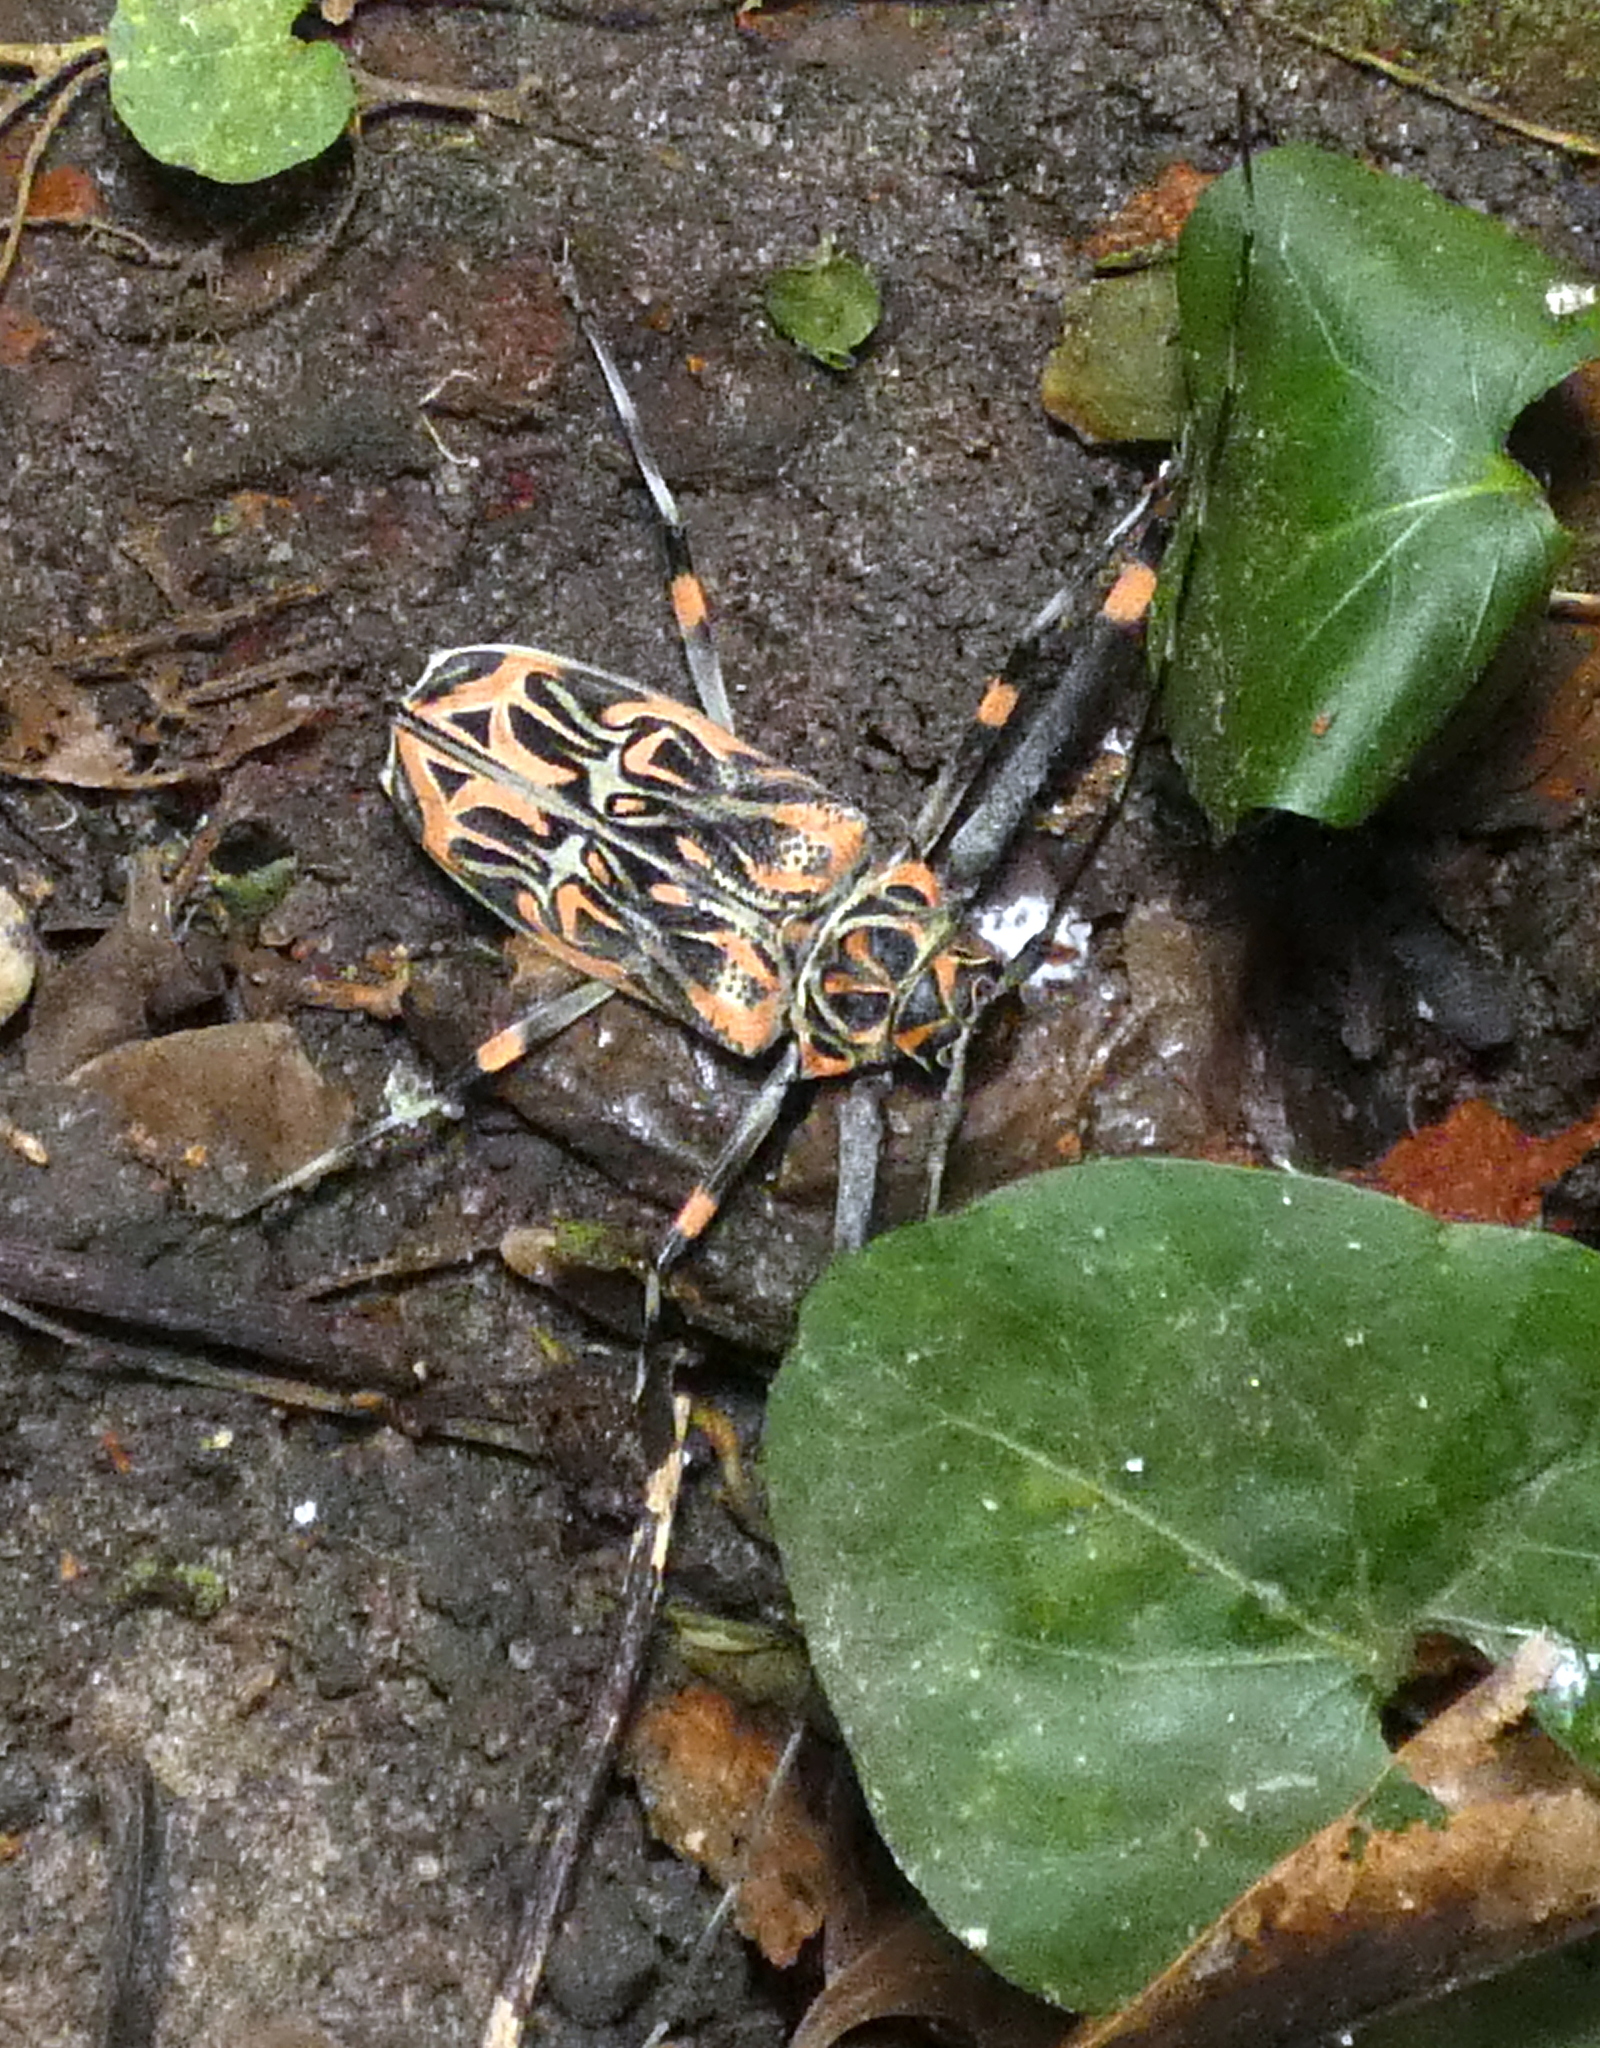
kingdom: Animalia
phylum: Arthropoda
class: Insecta
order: Coleoptera
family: Cerambycidae
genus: Acrocinus
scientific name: Acrocinus longimanus
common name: Arlequin
